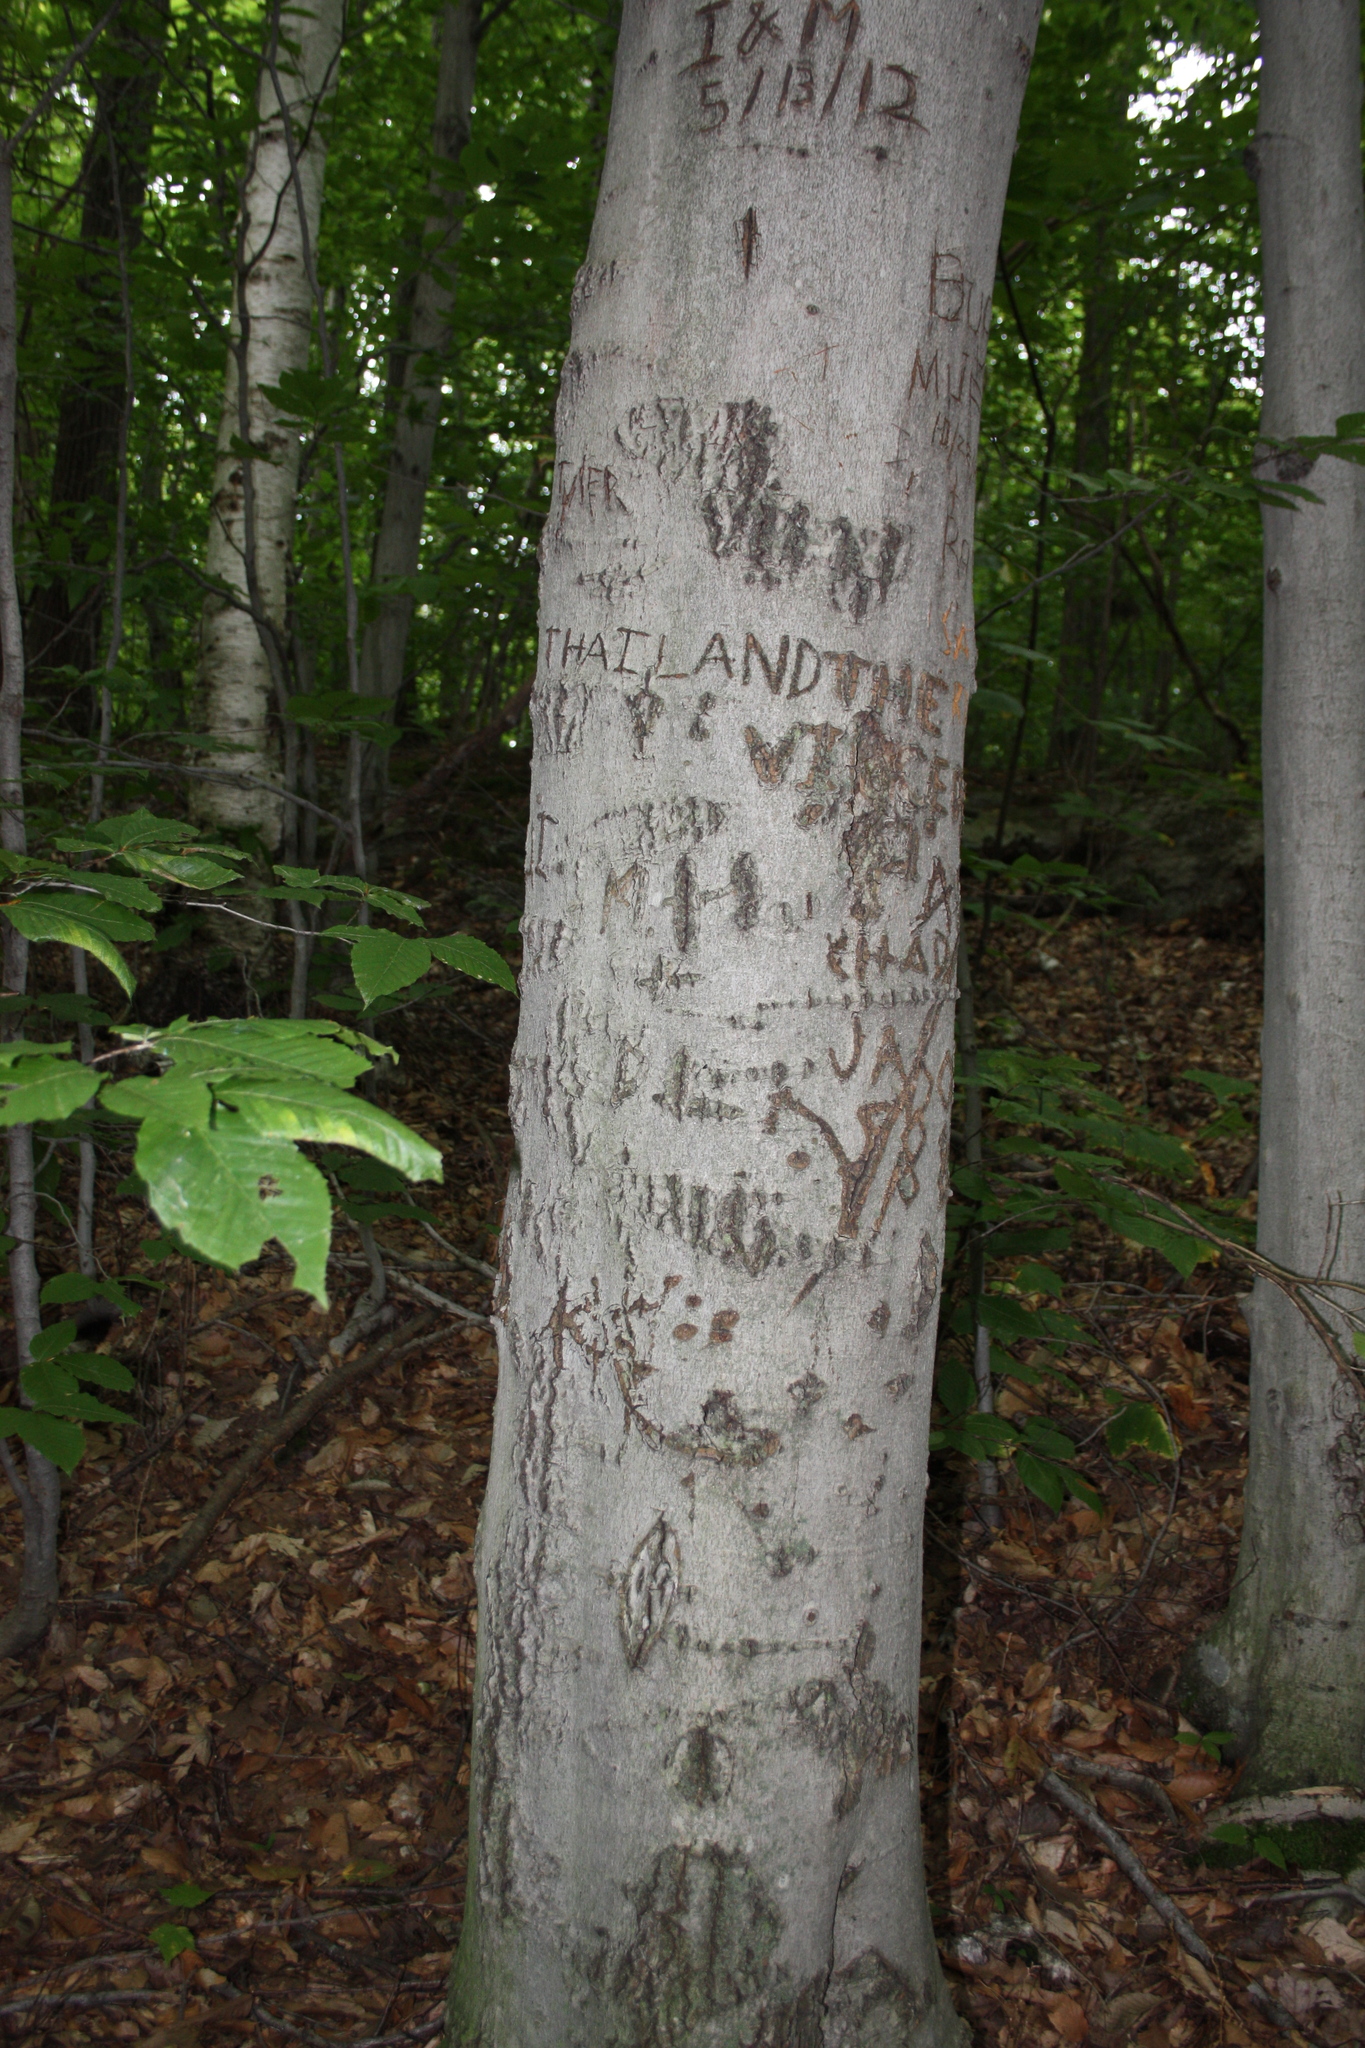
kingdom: Plantae
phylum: Tracheophyta
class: Magnoliopsida
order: Fagales
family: Fagaceae
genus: Fagus
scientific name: Fagus grandifolia
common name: American beech
